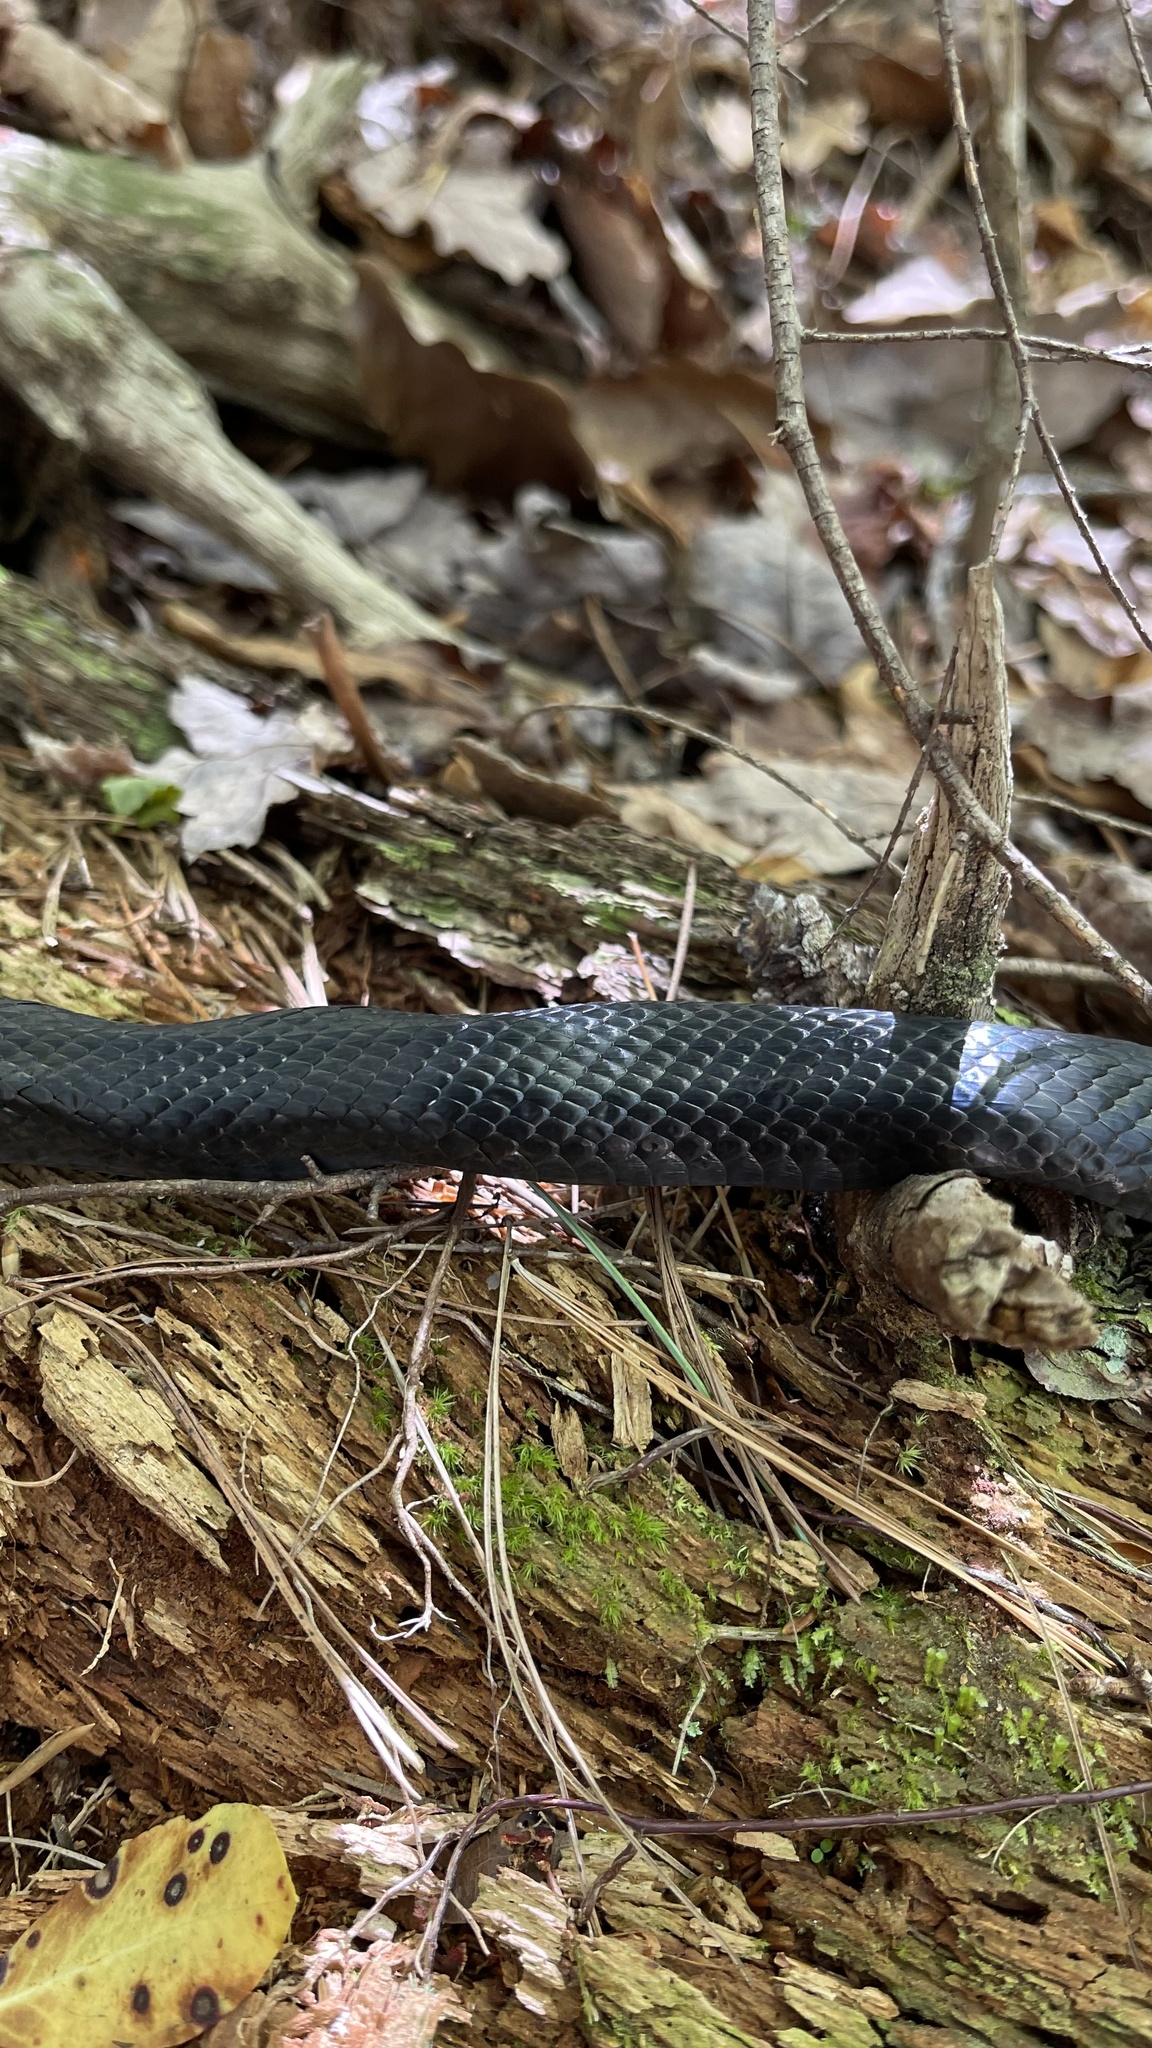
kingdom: Animalia
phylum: Chordata
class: Squamata
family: Colubridae
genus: Pantherophis
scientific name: Pantherophis
